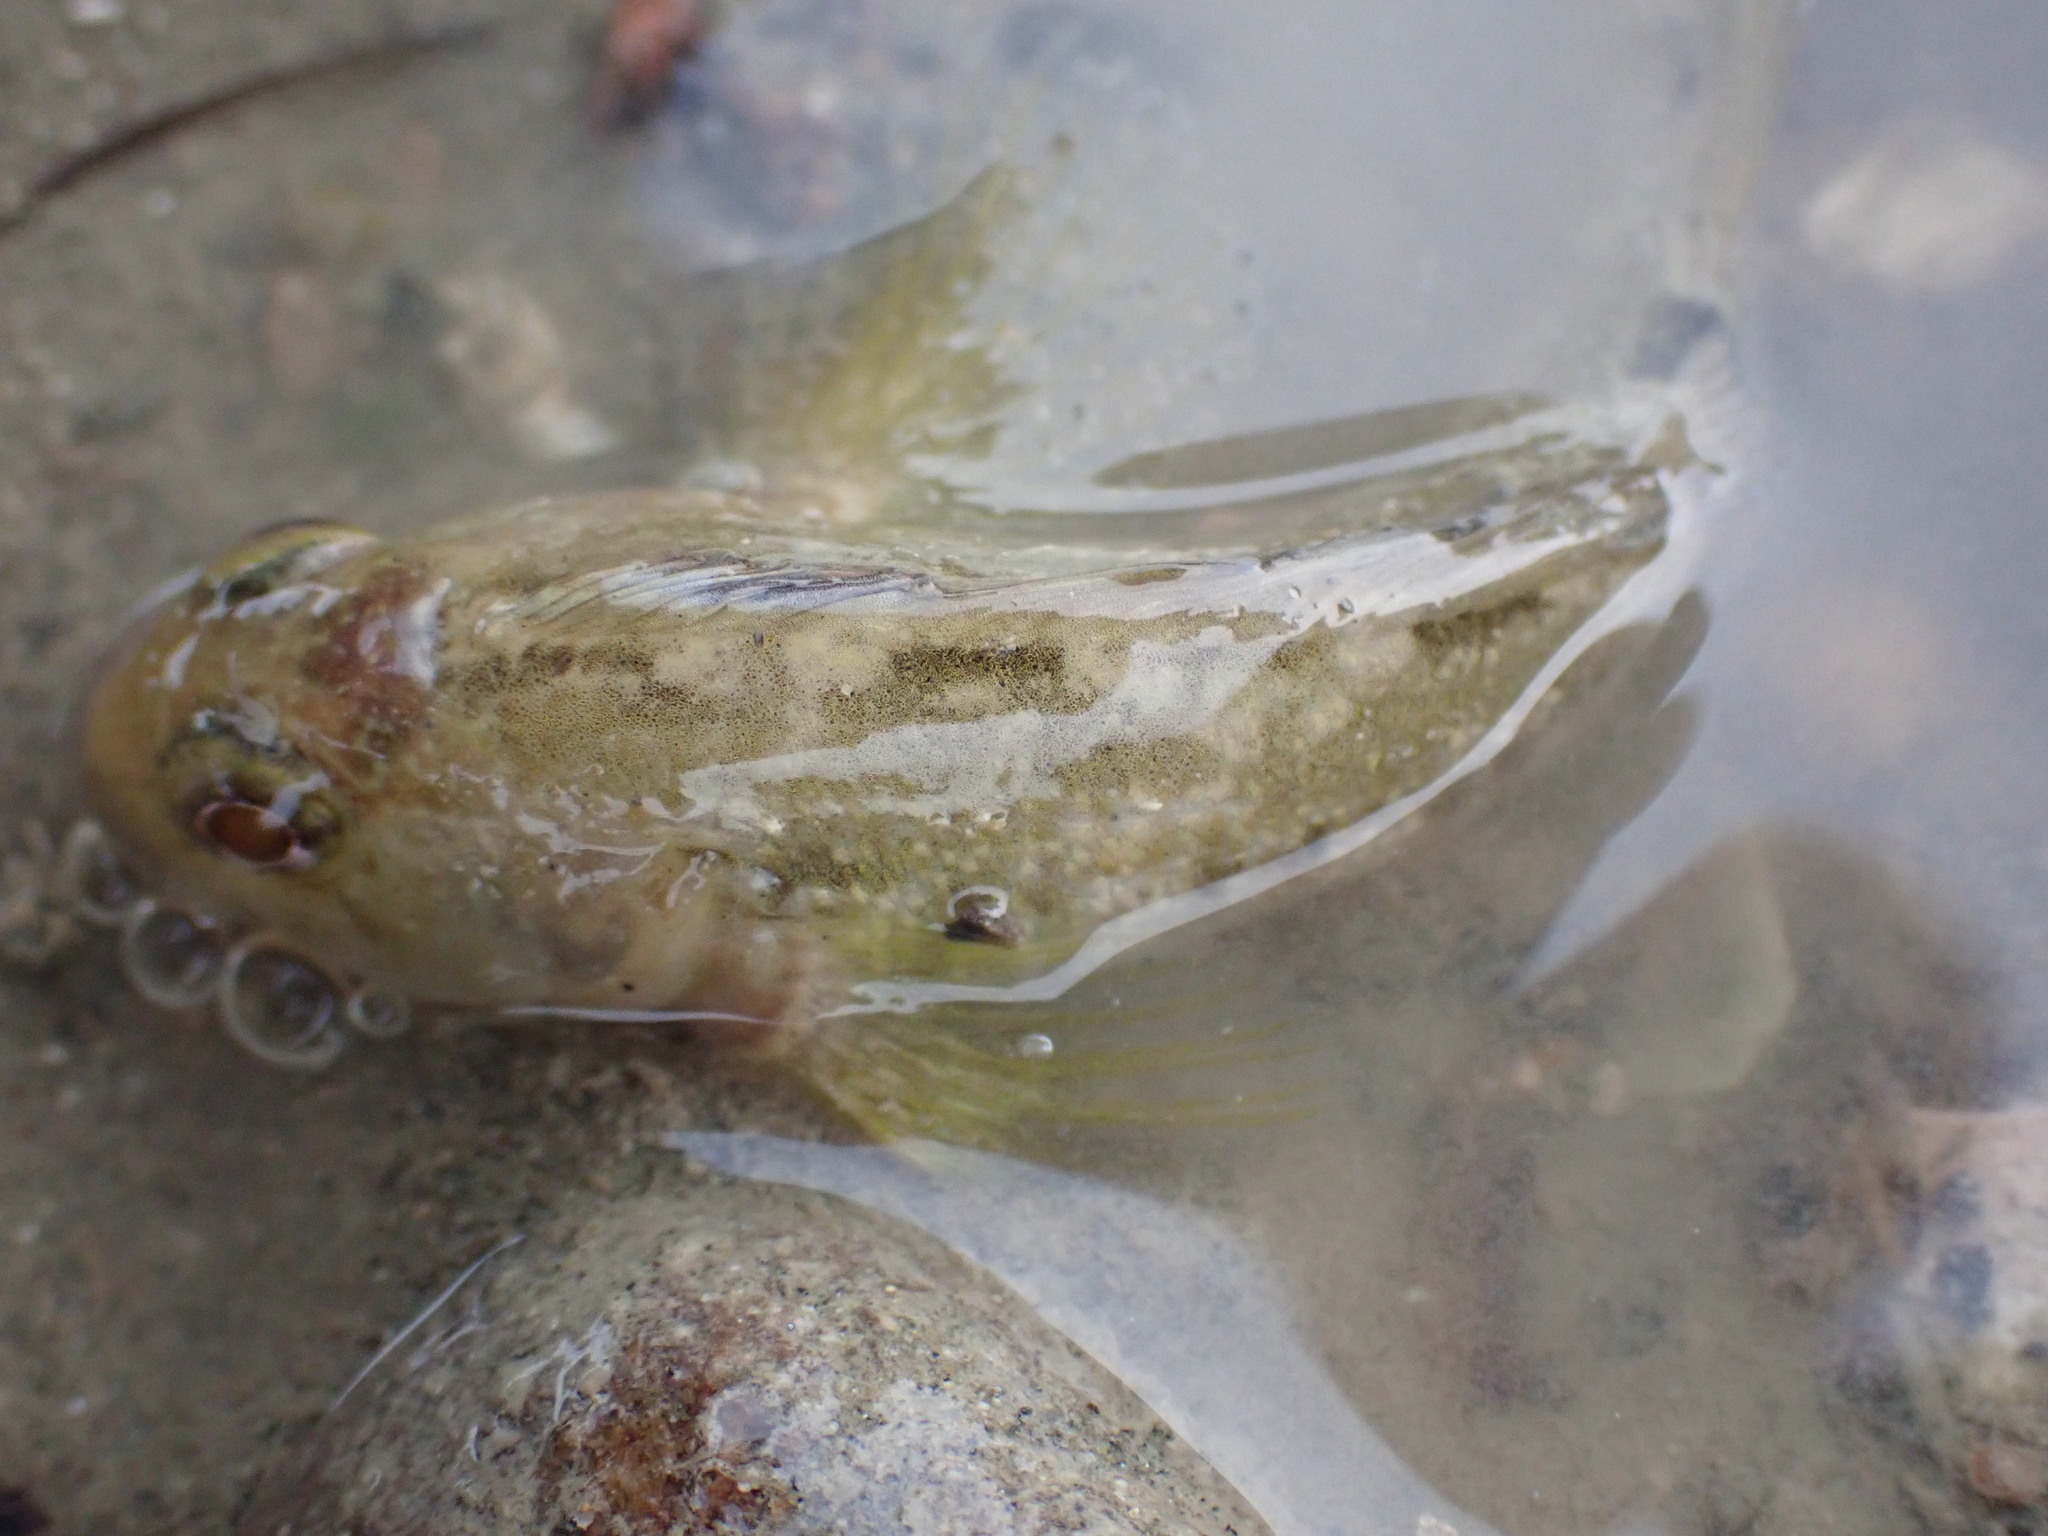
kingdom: Animalia
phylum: Chordata
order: Perciformes
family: Tripterygiidae
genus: Forsterygion
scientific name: Forsterygion capito
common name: Spotted robust triplefin
